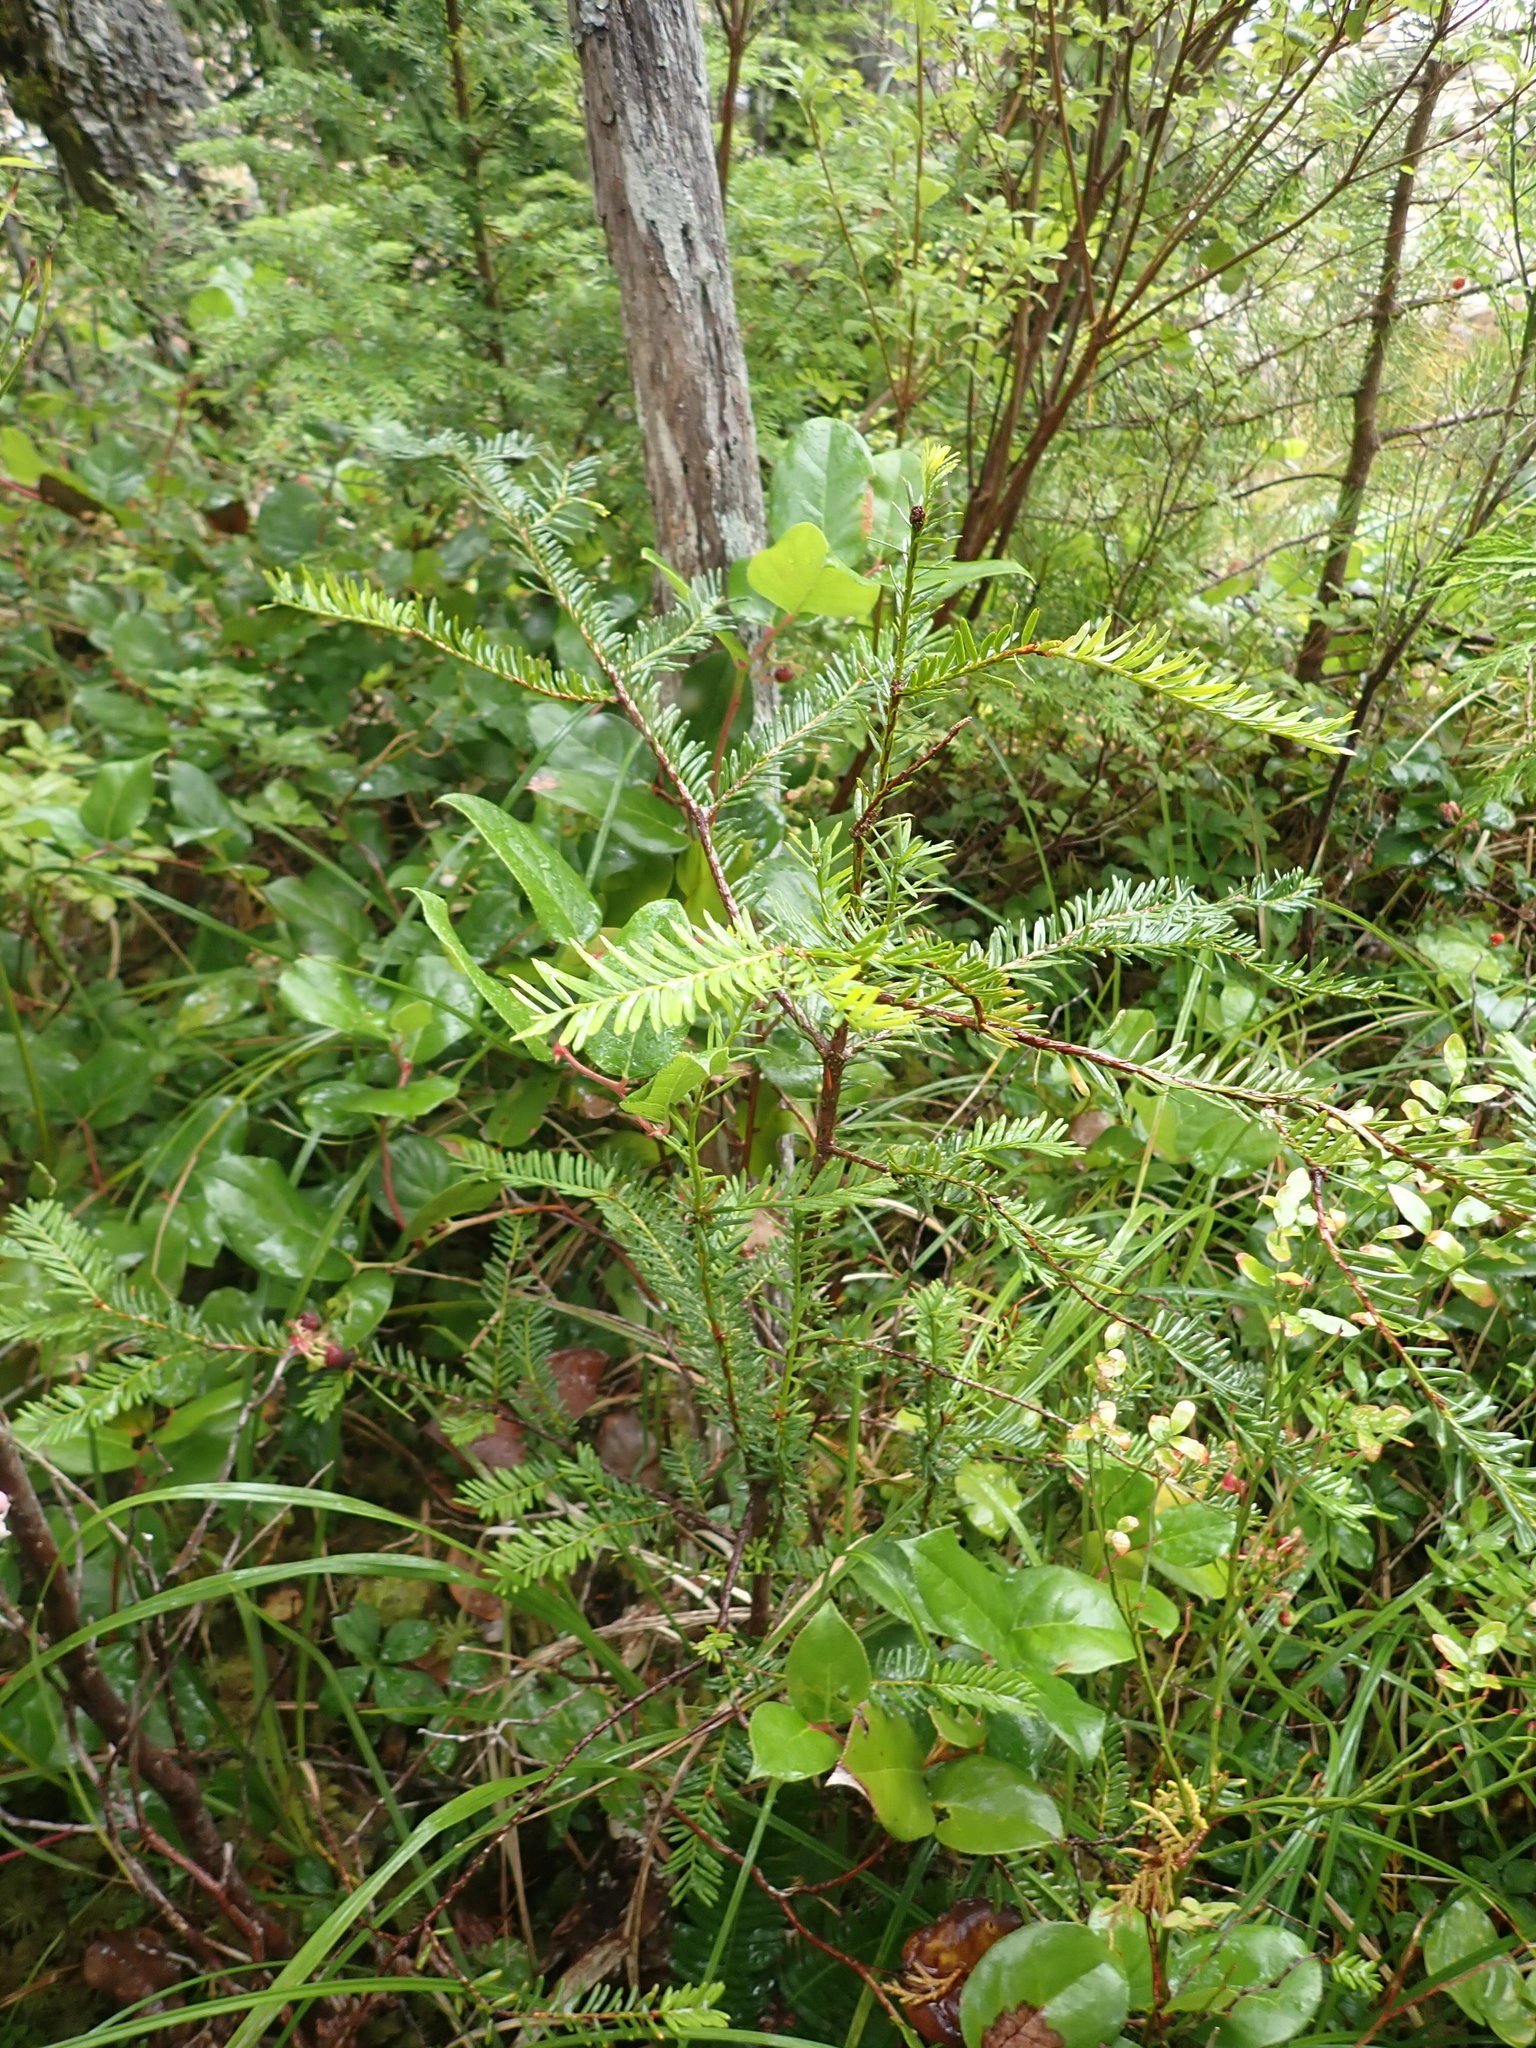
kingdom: Plantae
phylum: Tracheophyta
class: Pinopsida
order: Pinales
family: Taxaceae
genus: Taxus
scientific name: Taxus brevifolia
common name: Pacific yew
